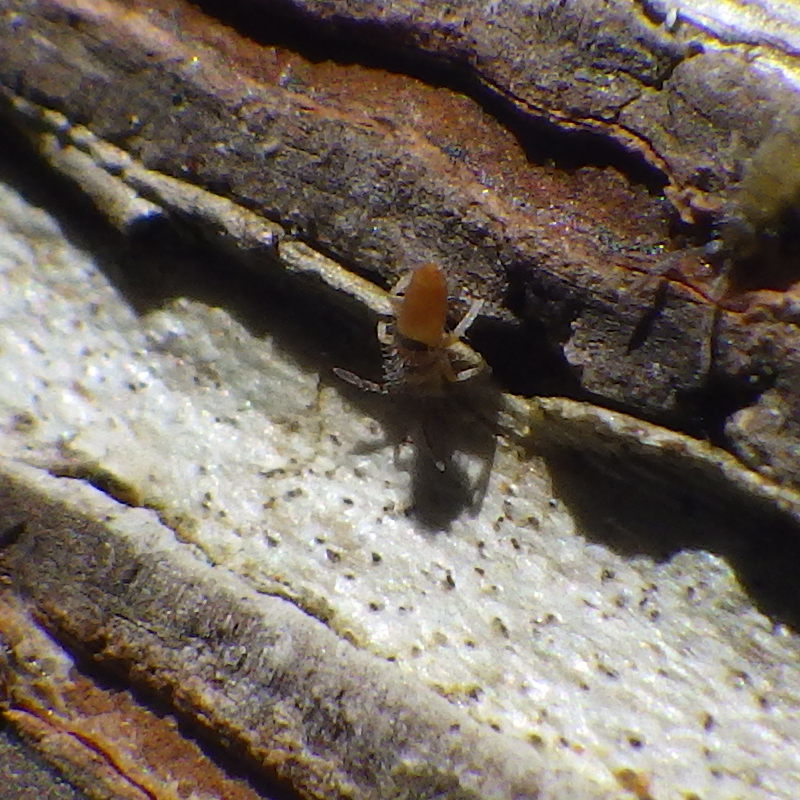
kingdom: Animalia
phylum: Arthropoda
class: Collembola
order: Entomobryomorpha
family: Entomobryidae
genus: Entomobrya
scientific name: Entomobrya atrocincta
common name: Springtail
